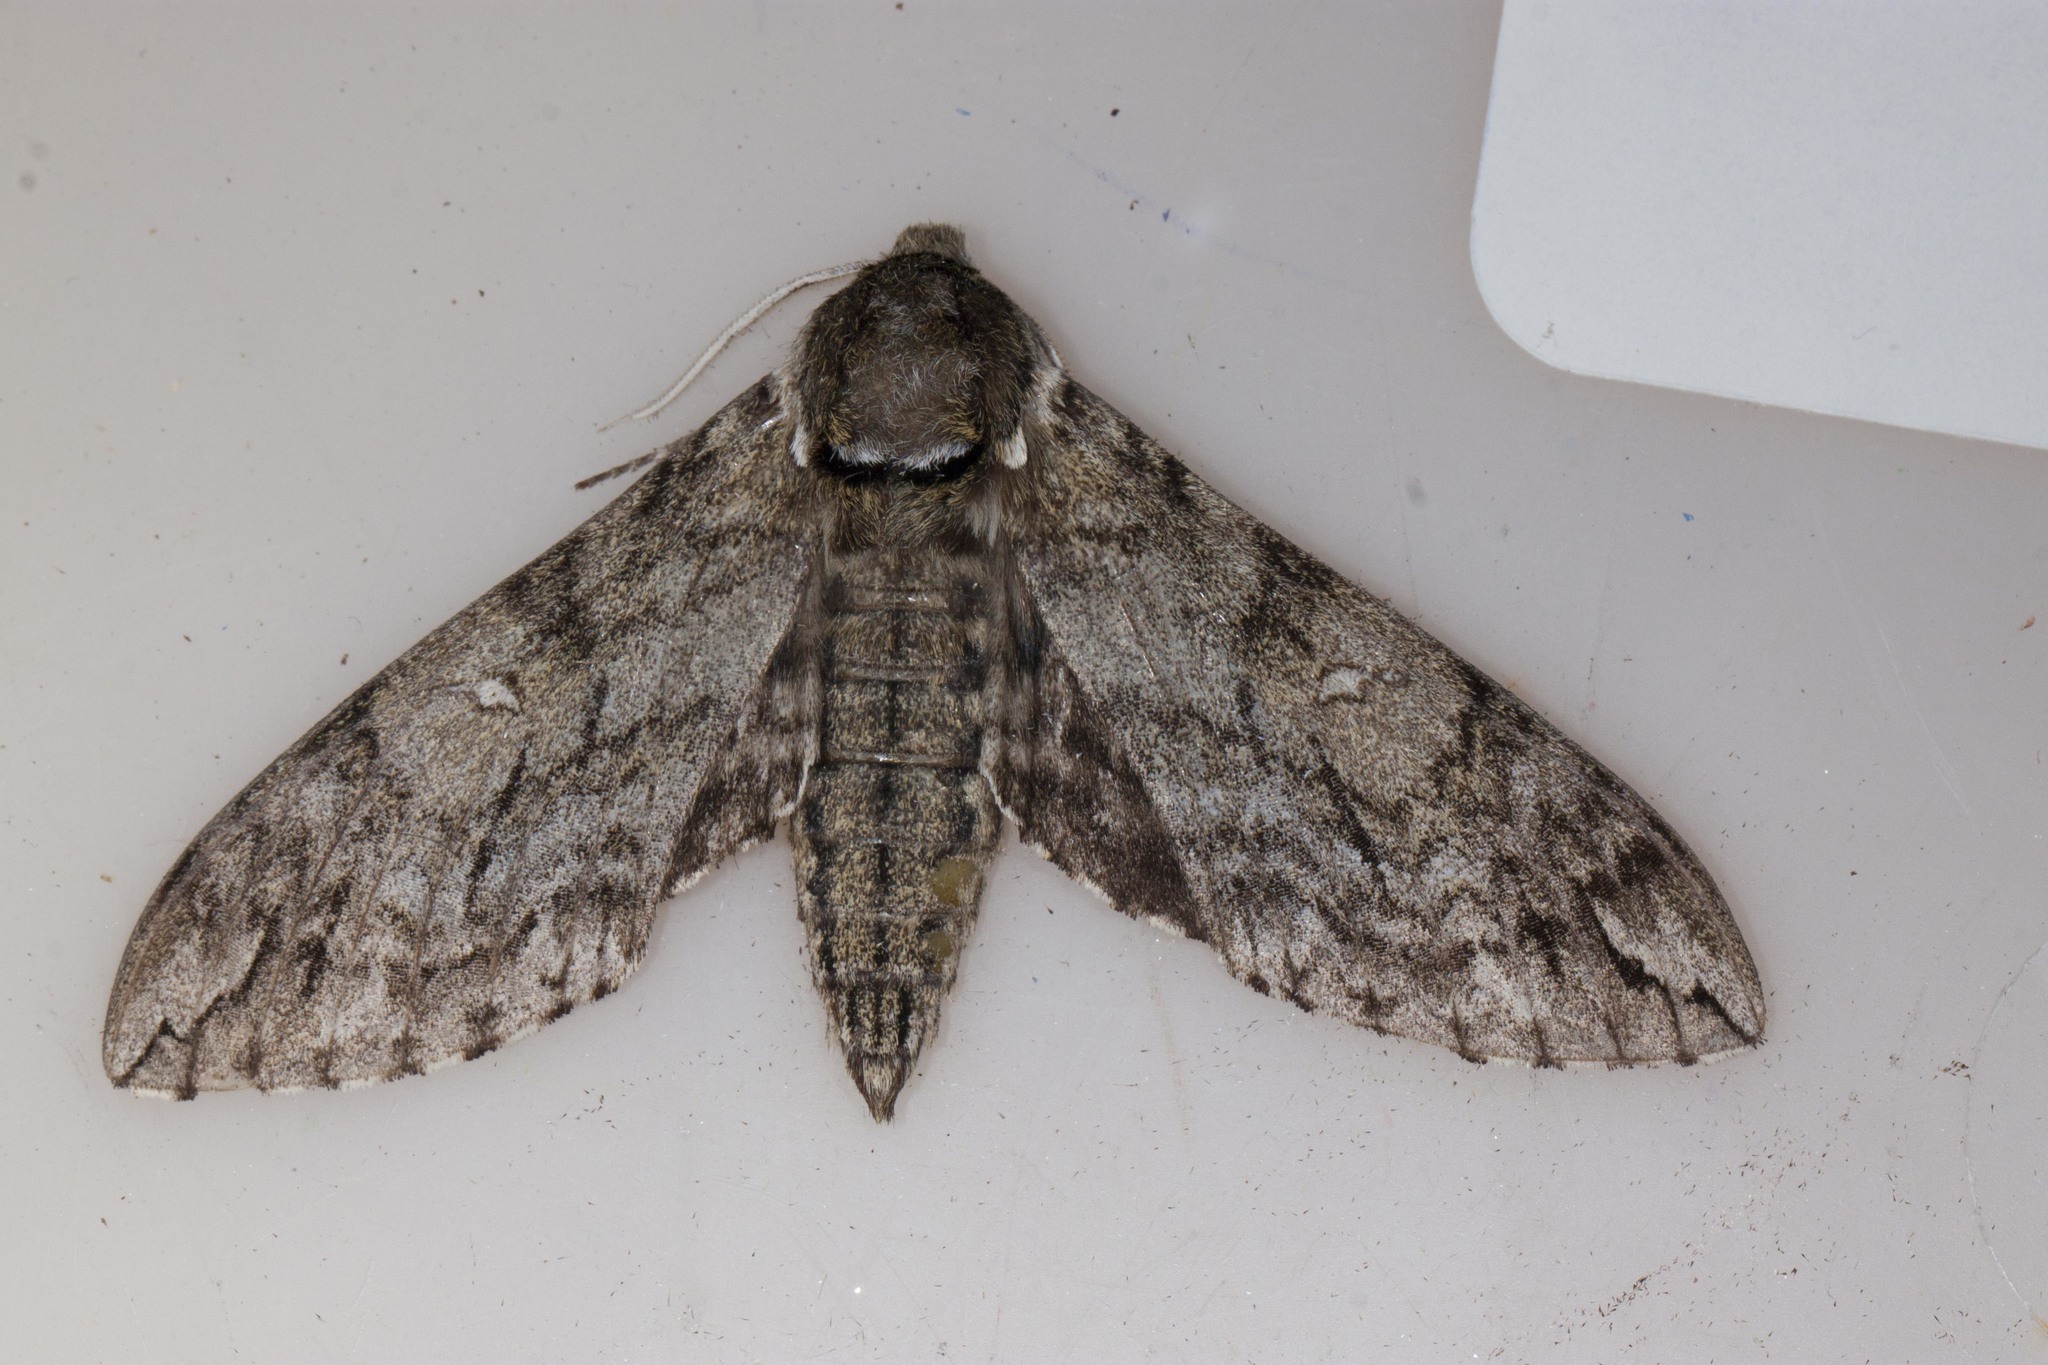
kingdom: Animalia
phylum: Arthropoda
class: Insecta
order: Lepidoptera
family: Sphingidae
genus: Ceratomia
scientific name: Ceratomia undulosa
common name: Waved sphinx
